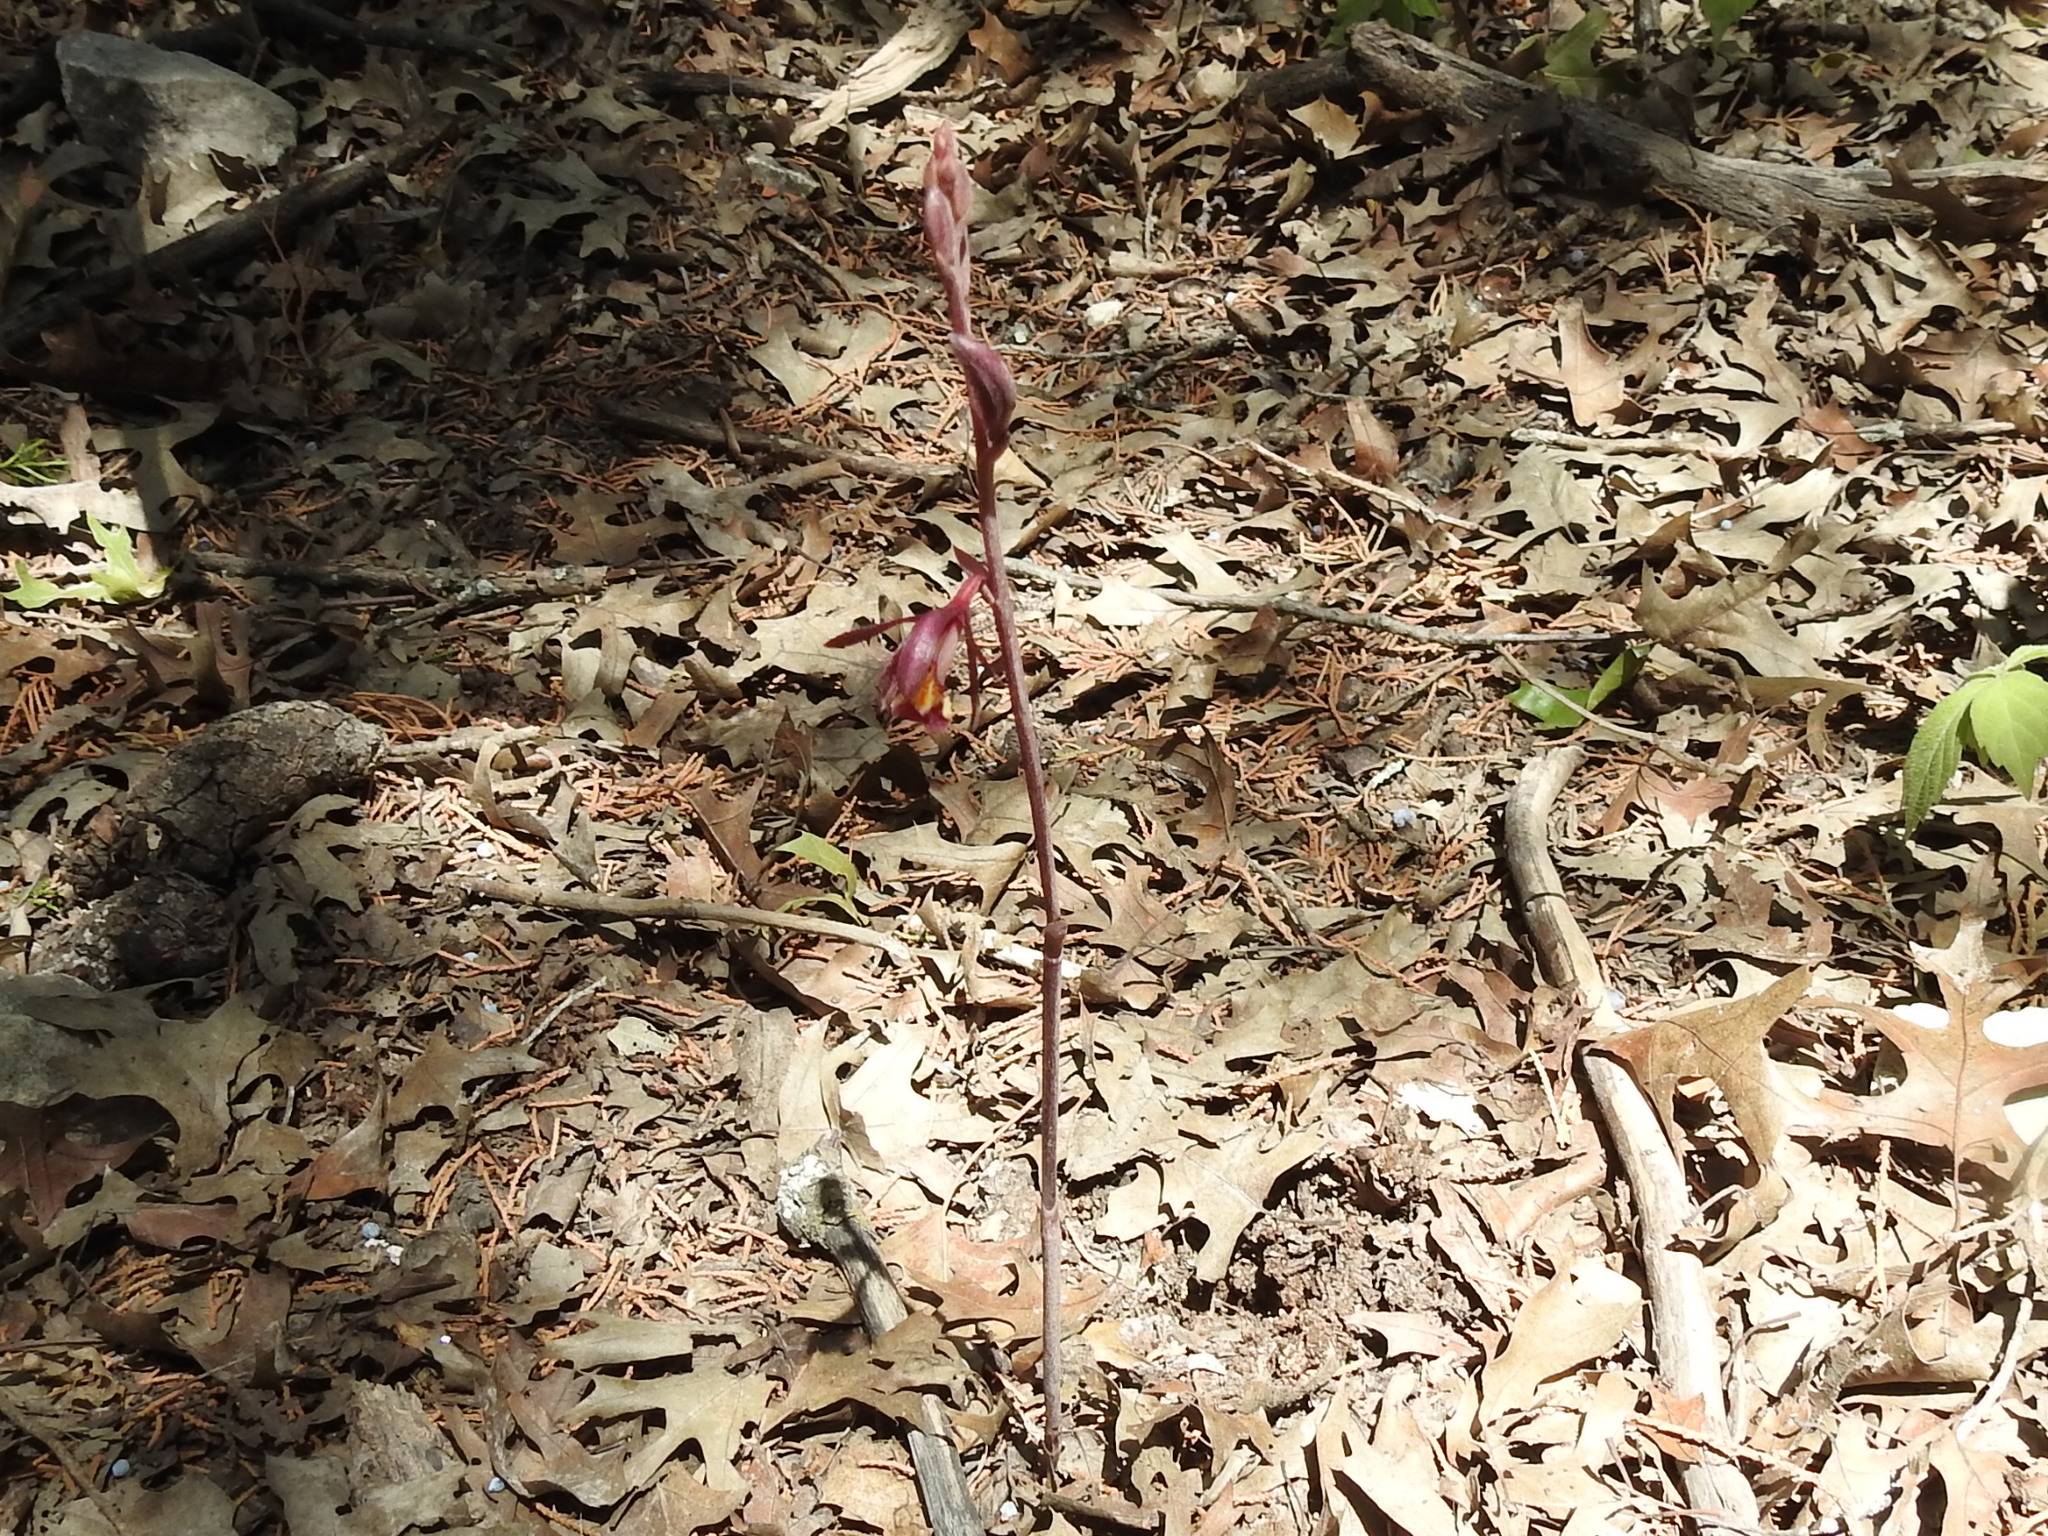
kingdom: Plantae
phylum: Tracheophyta
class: Liliopsida
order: Asparagales
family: Orchidaceae
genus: Bletia
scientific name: Bletia warnockii
